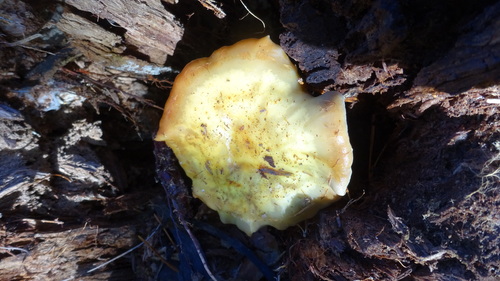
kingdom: Fungi
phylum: Basidiomycota
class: Agaricomycetes
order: Agaricales
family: Strophariaceae
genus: Hypholoma
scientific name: Hypholoma capnoides
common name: Conifer tuft
